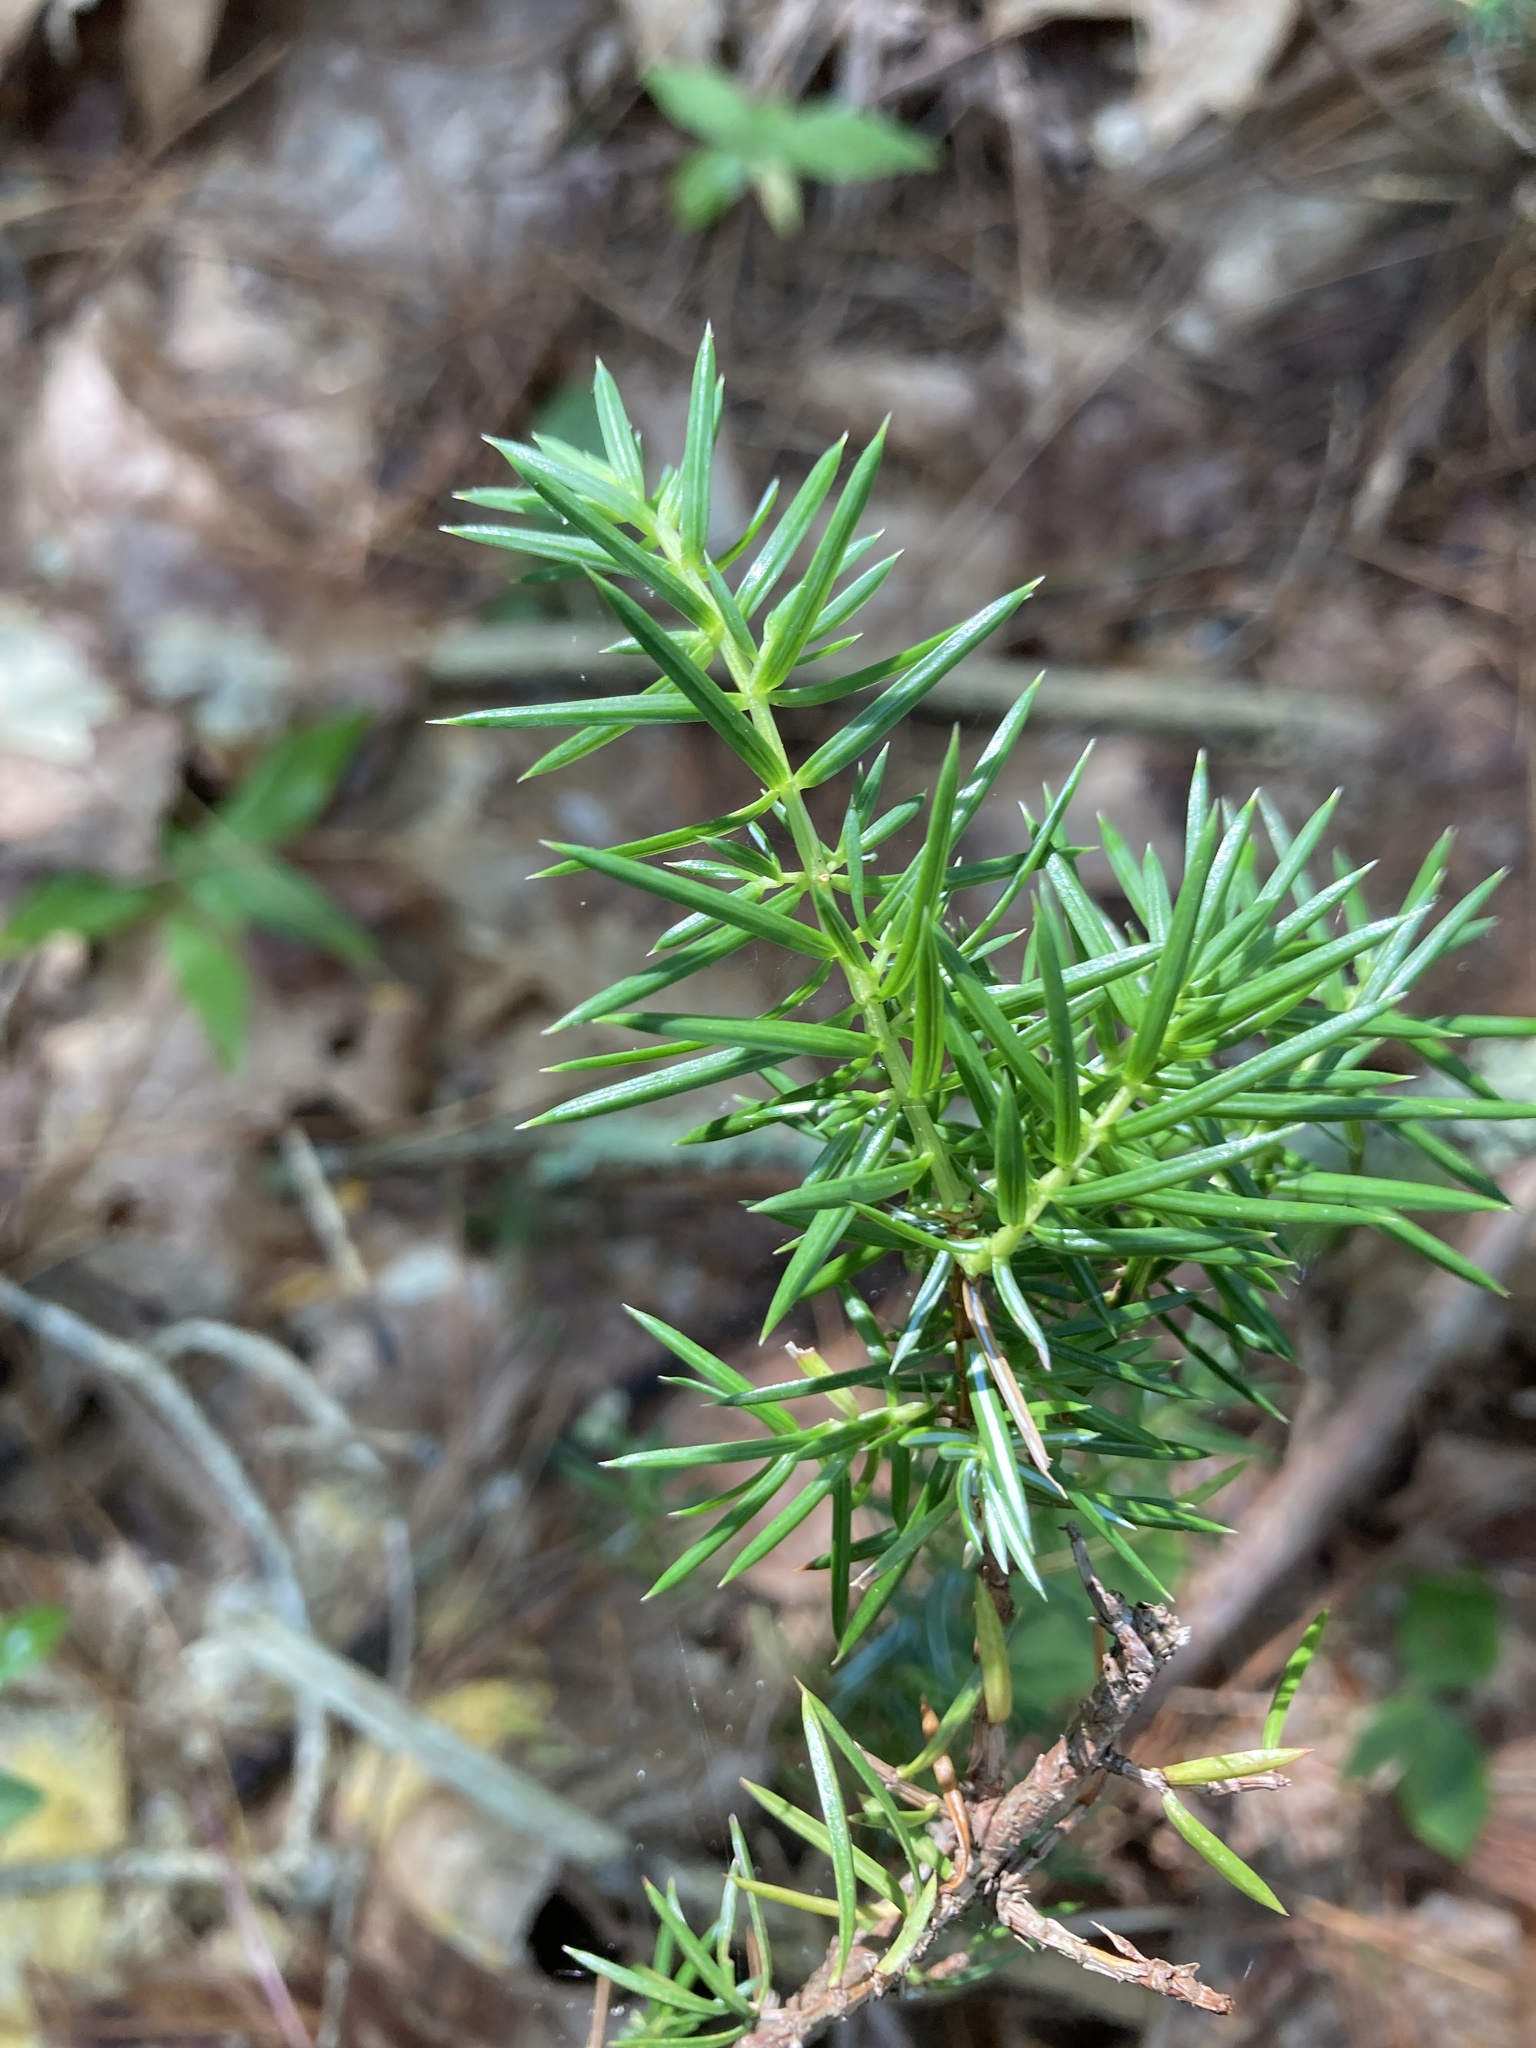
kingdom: Plantae
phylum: Tracheophyta
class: Pinopsida
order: Pinales
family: Cupressaceae
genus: Juniperus
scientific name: Juniperus communis
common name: Common juniper
